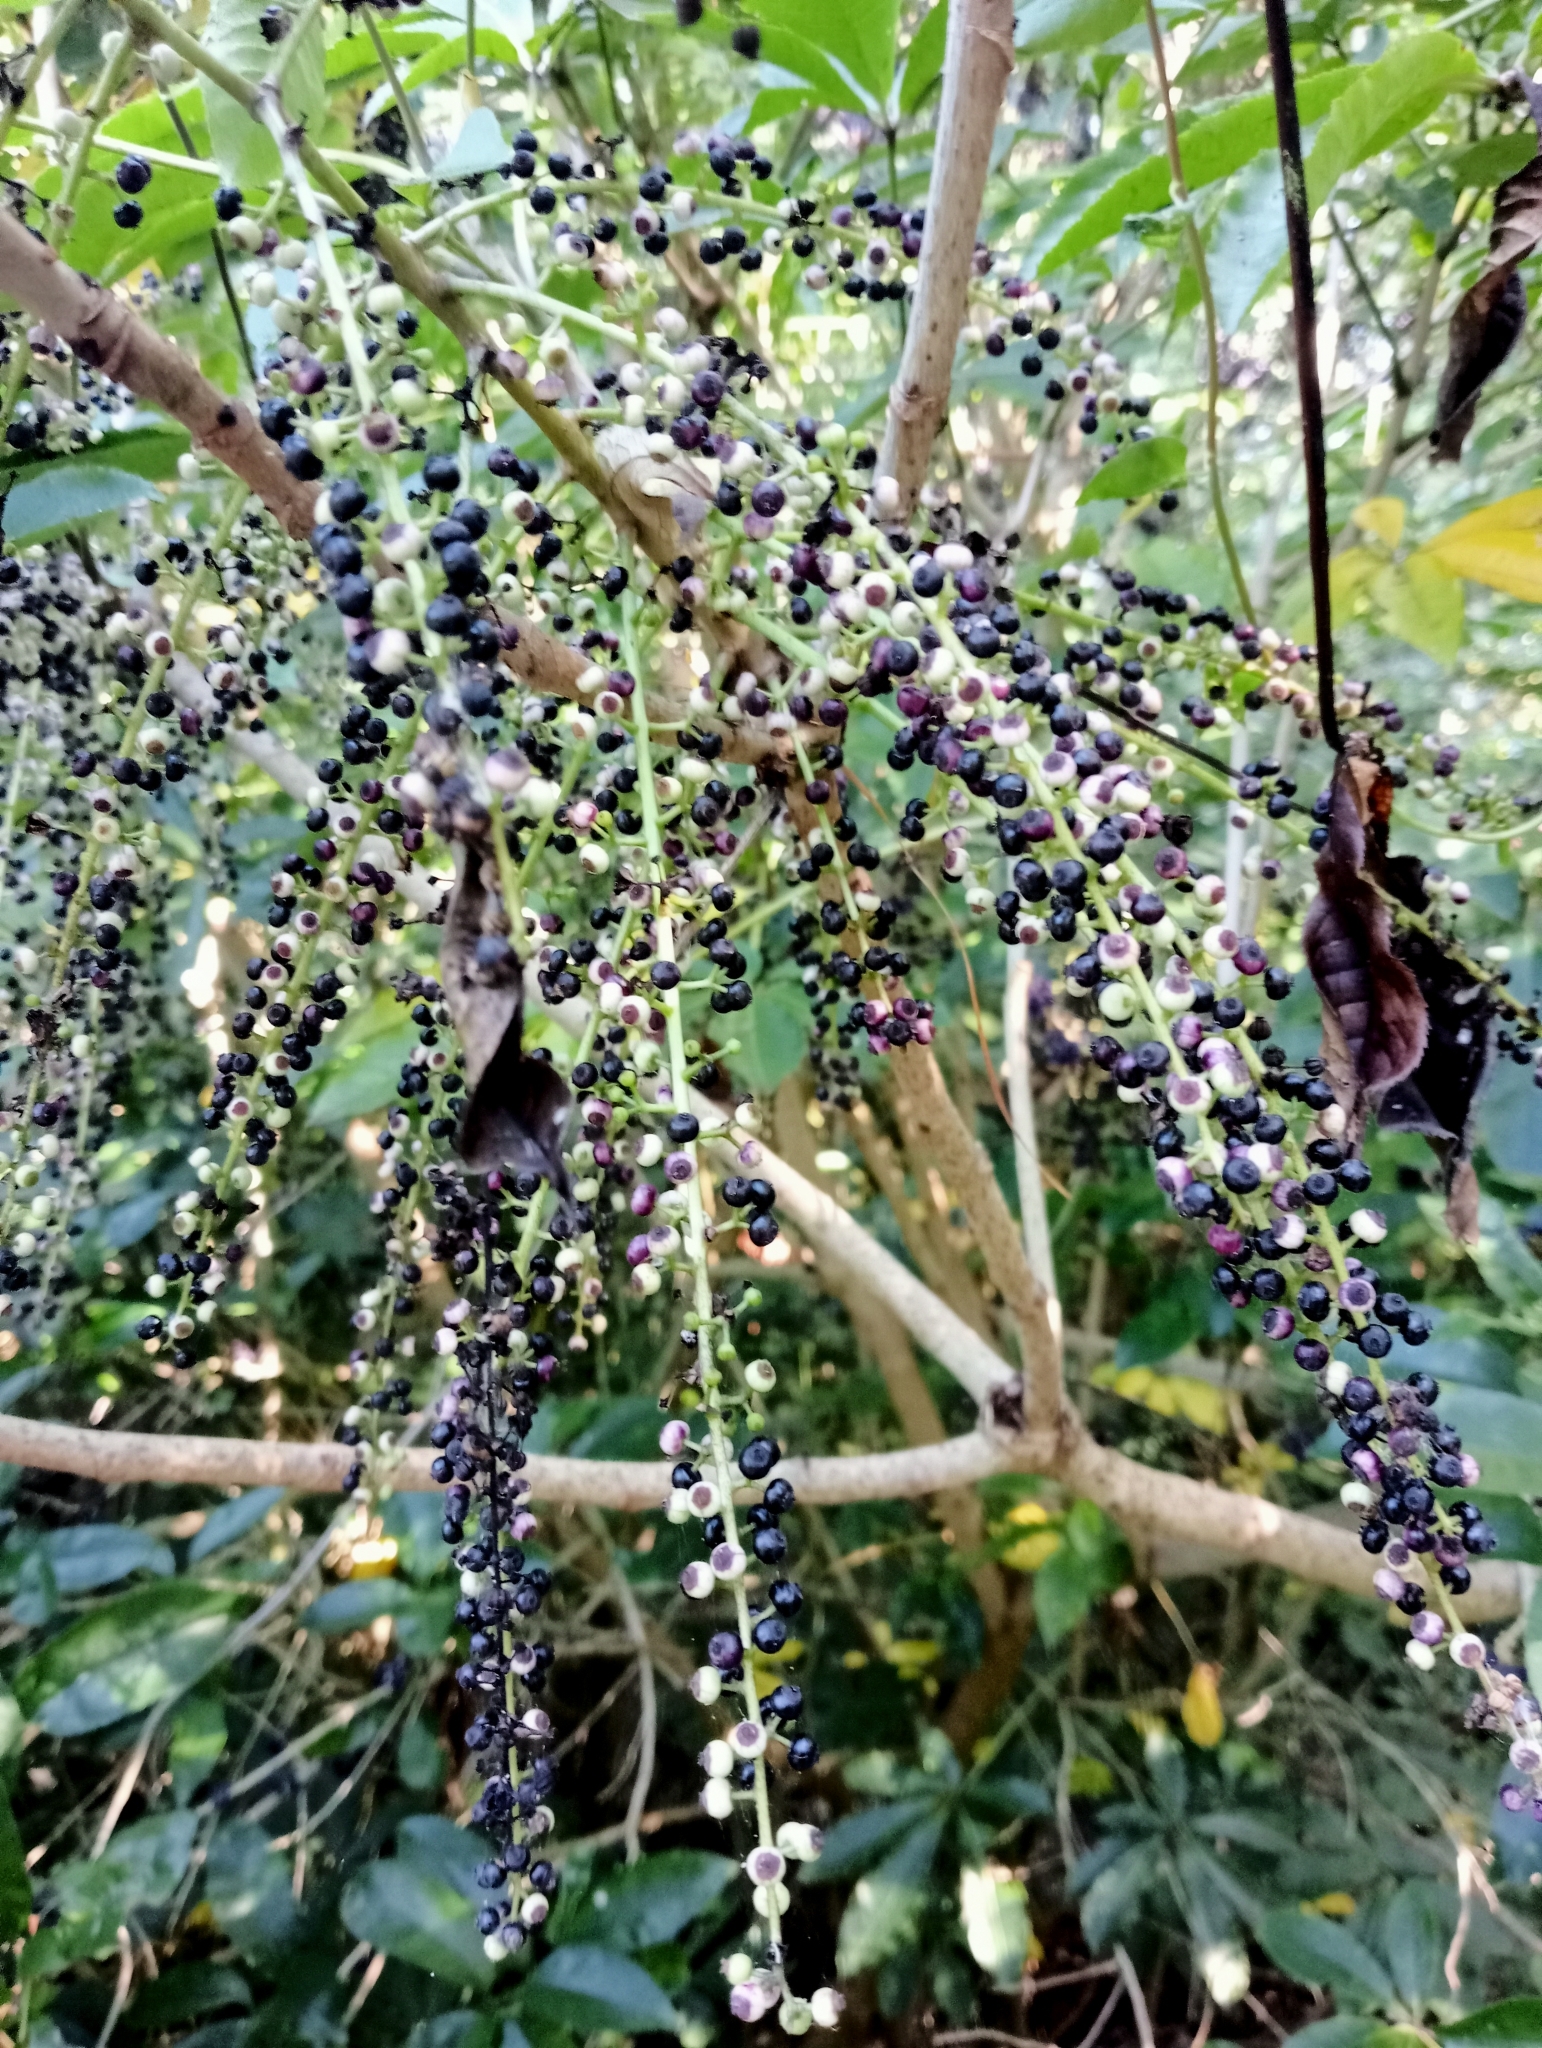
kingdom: Plantae
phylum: Tracheophyta
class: Magnoliopsida
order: Apiales
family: Araliaceae
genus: Schefflera
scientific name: Schefflera digitata
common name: Pate
